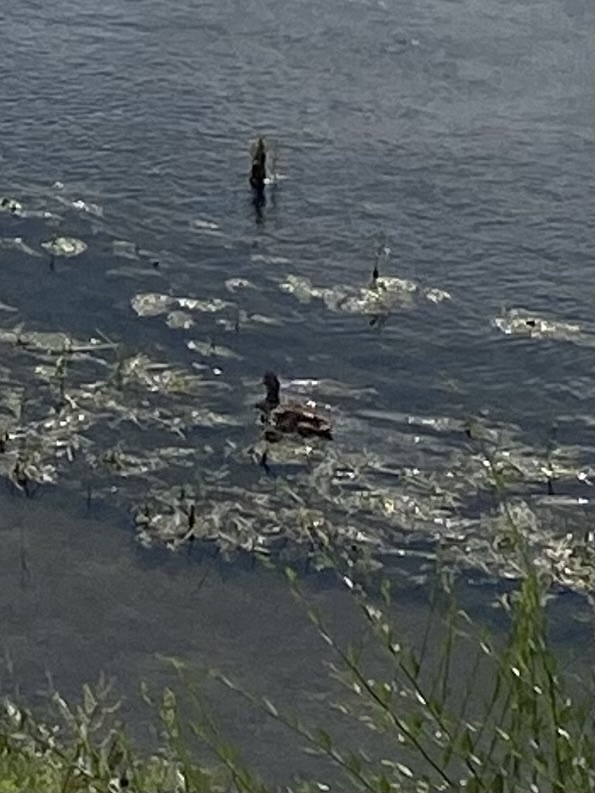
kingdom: Animalia
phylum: Chordata
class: Aves
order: Anseriformes
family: Anatidae
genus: Anas
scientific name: Anas platyrhynchos
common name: Mallard
